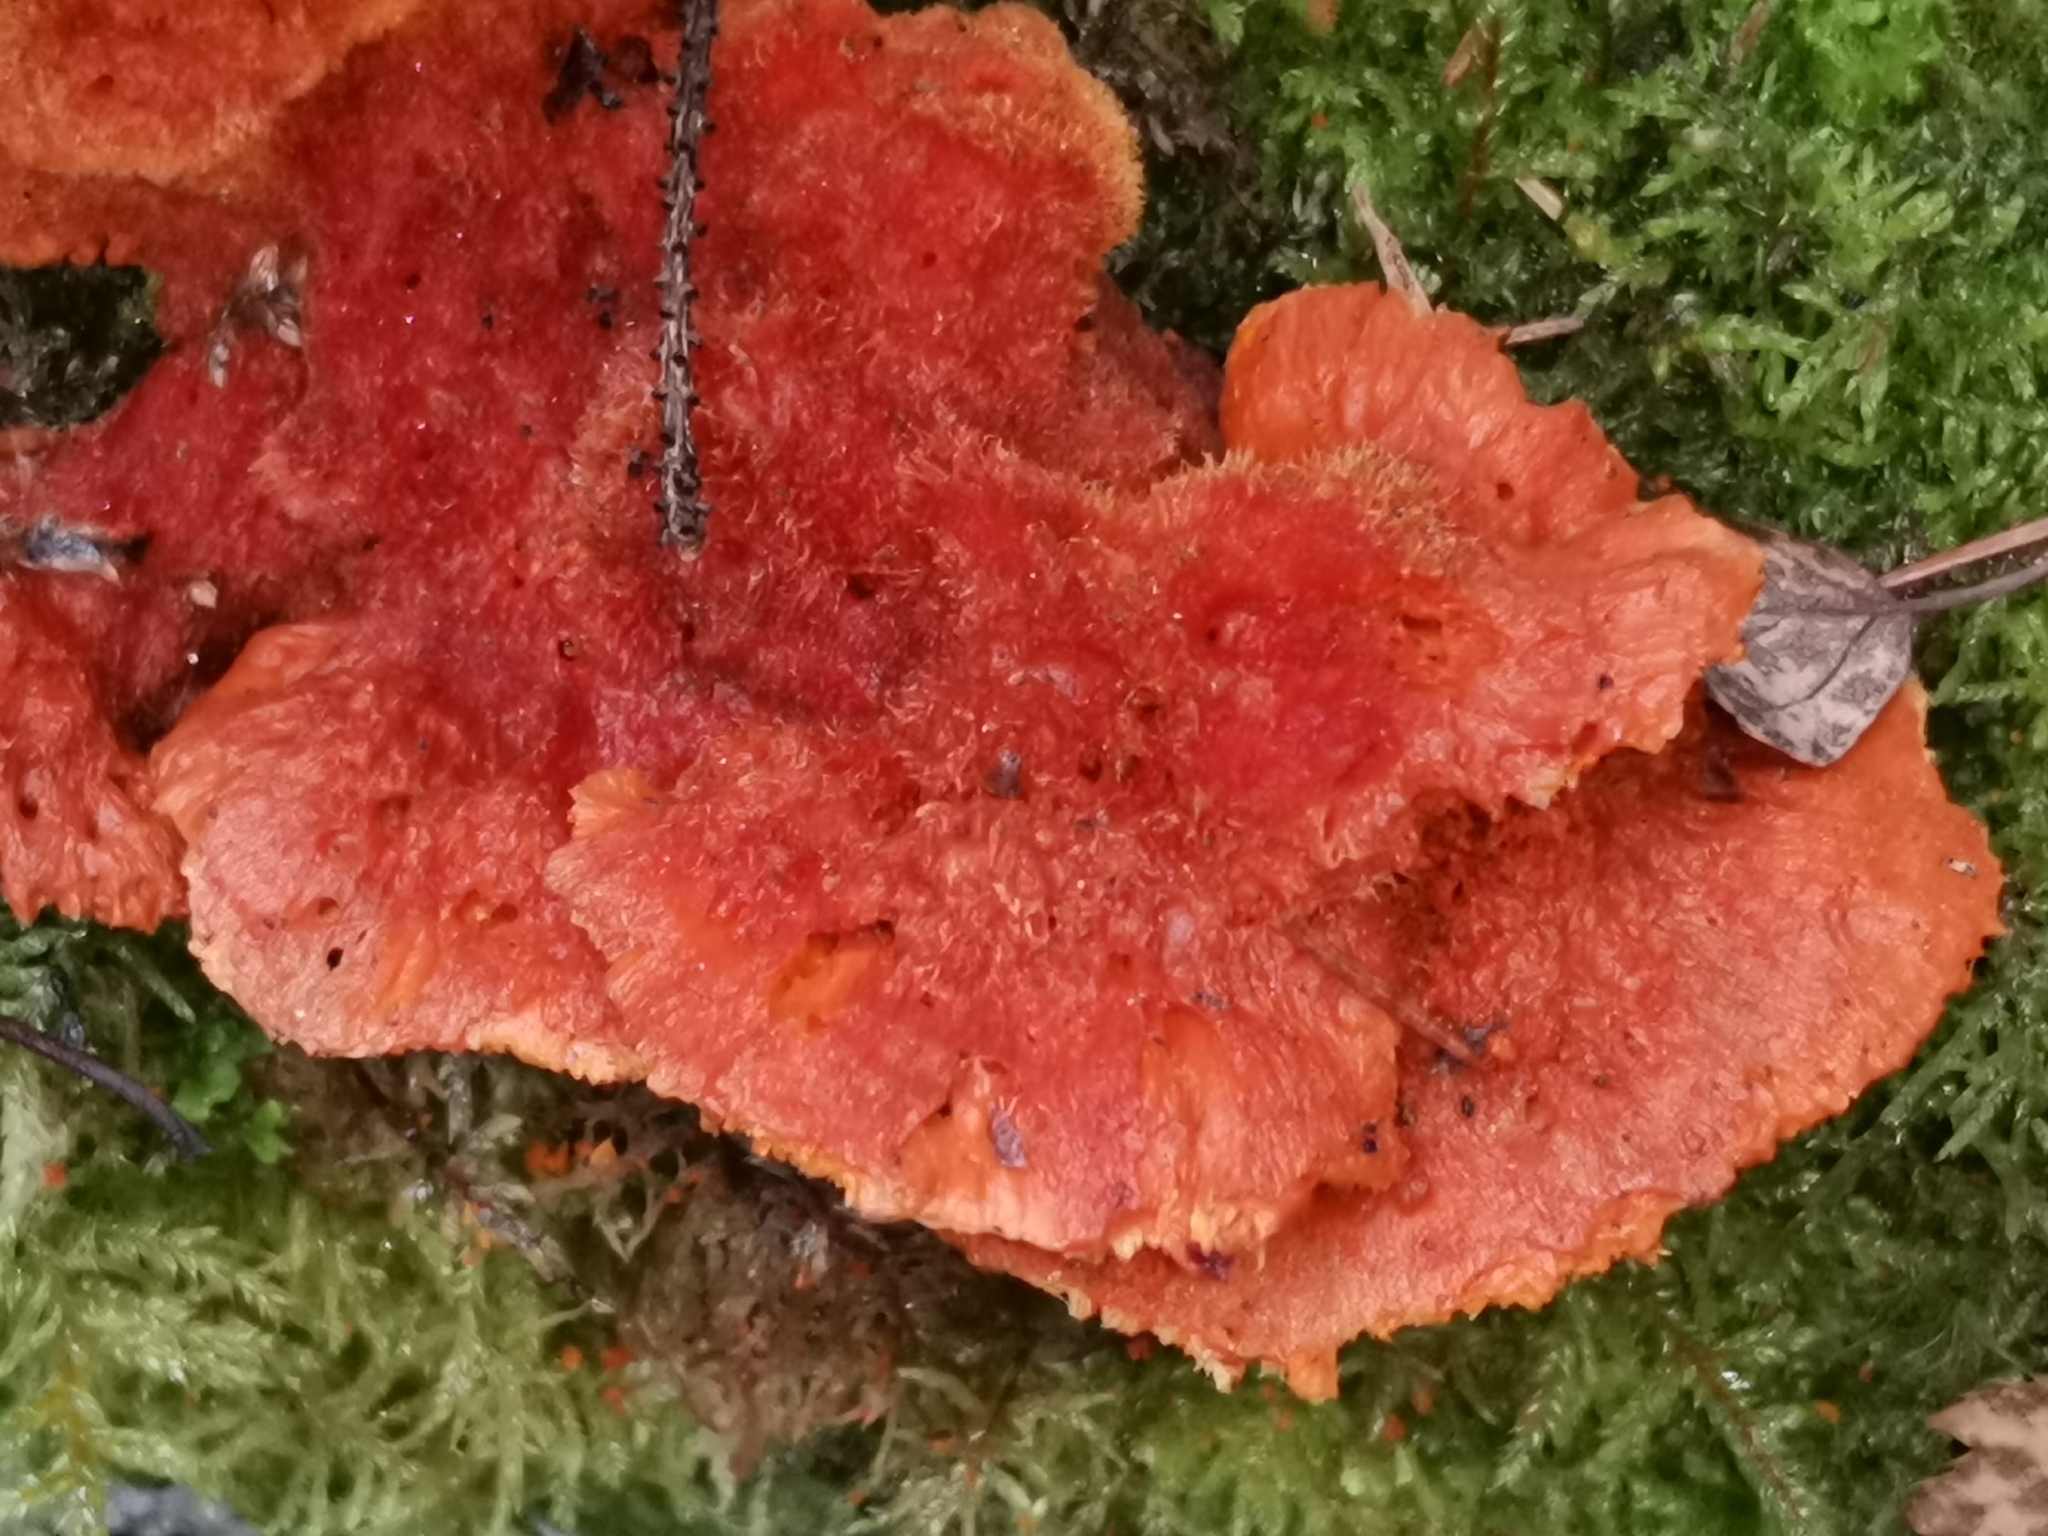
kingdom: Fungi
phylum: Basidiomycota
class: Agaricomycetes
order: Polyporales
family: Pycnoporellaceae
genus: Pycnoporellus
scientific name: Pycnoporellus fulgens
